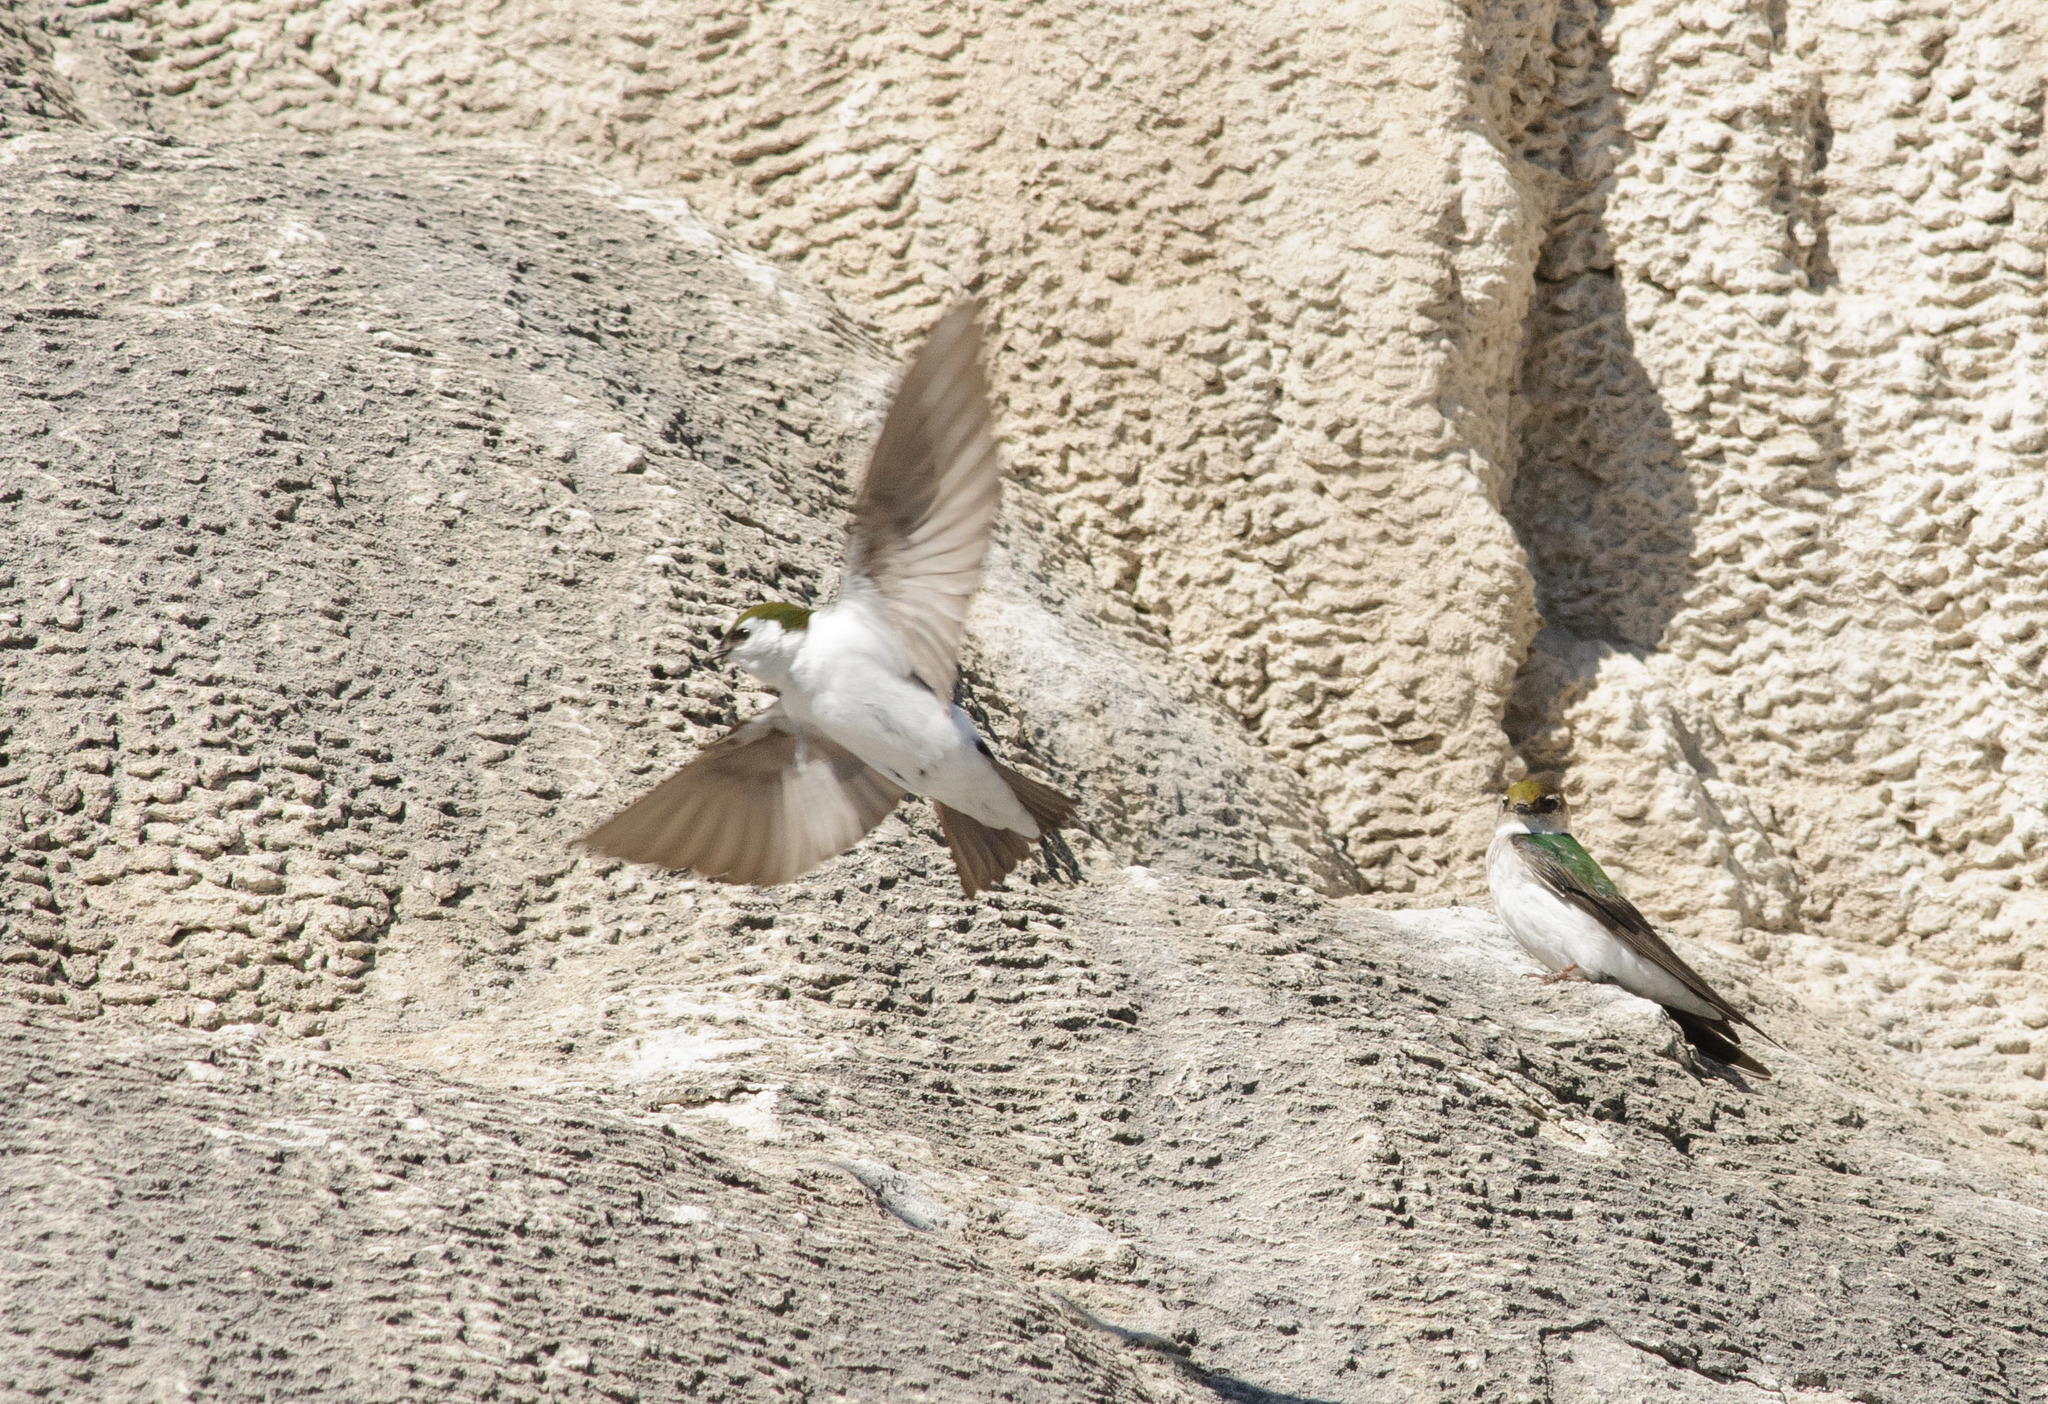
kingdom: Animalia
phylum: Chordata
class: Aves
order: Passeriformes
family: Hirundinidae
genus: Tachycineta
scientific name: Tachycineta thalassina
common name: Violet-green swallow
